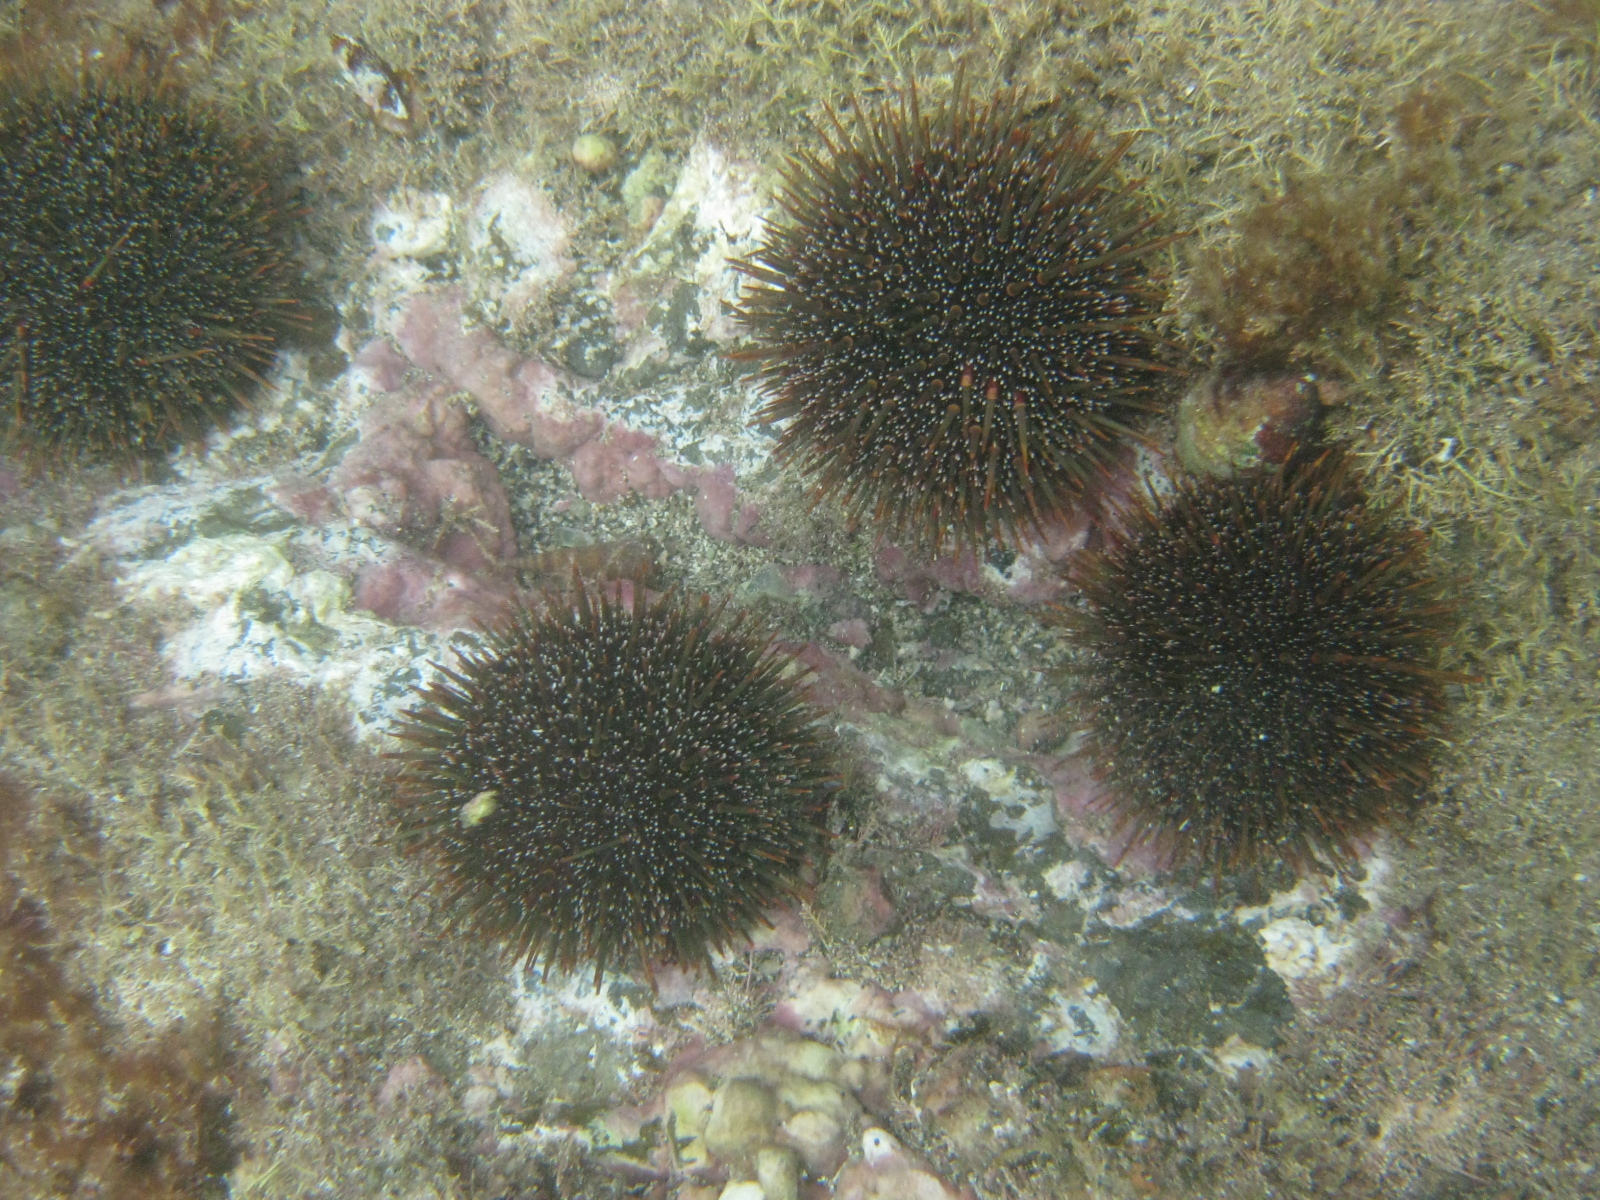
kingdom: Animalia
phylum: Echinodermata
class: Echinoidea
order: Camarodonta
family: Echinometridae
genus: Evechinus
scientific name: Evechinus chloroticus
